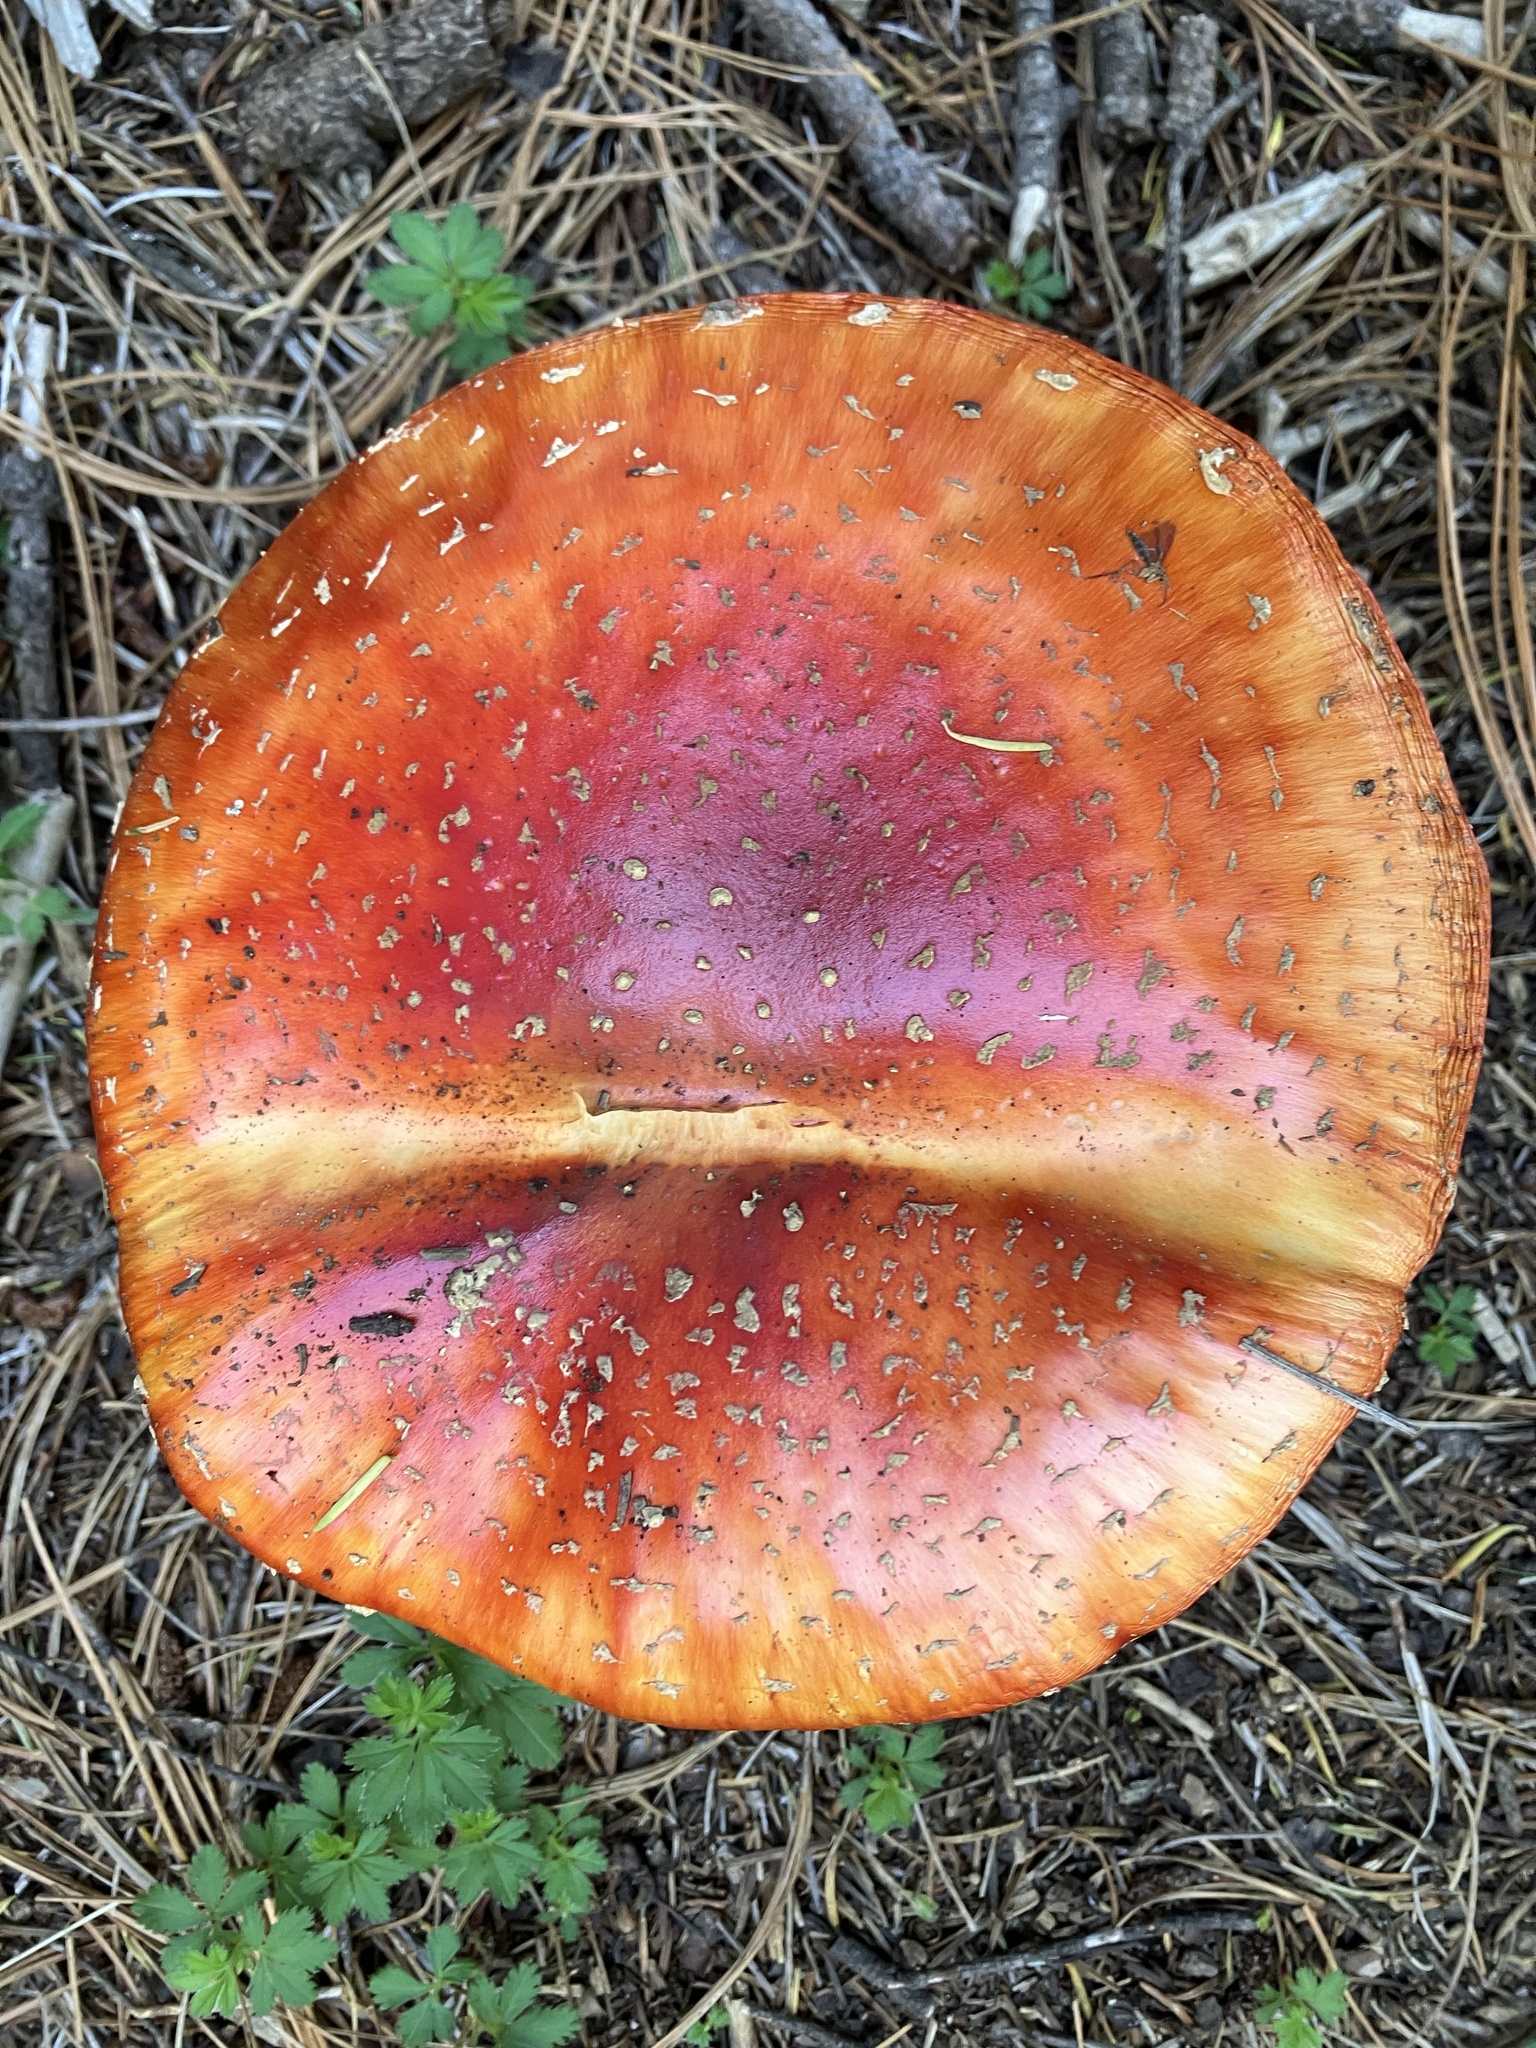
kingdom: Fungi
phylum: Basidiomycota
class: Agaricomycetes
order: Agaricales
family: Amanitaceae
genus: Amanita
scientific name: Amanita muscaria
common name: Fly agaric
